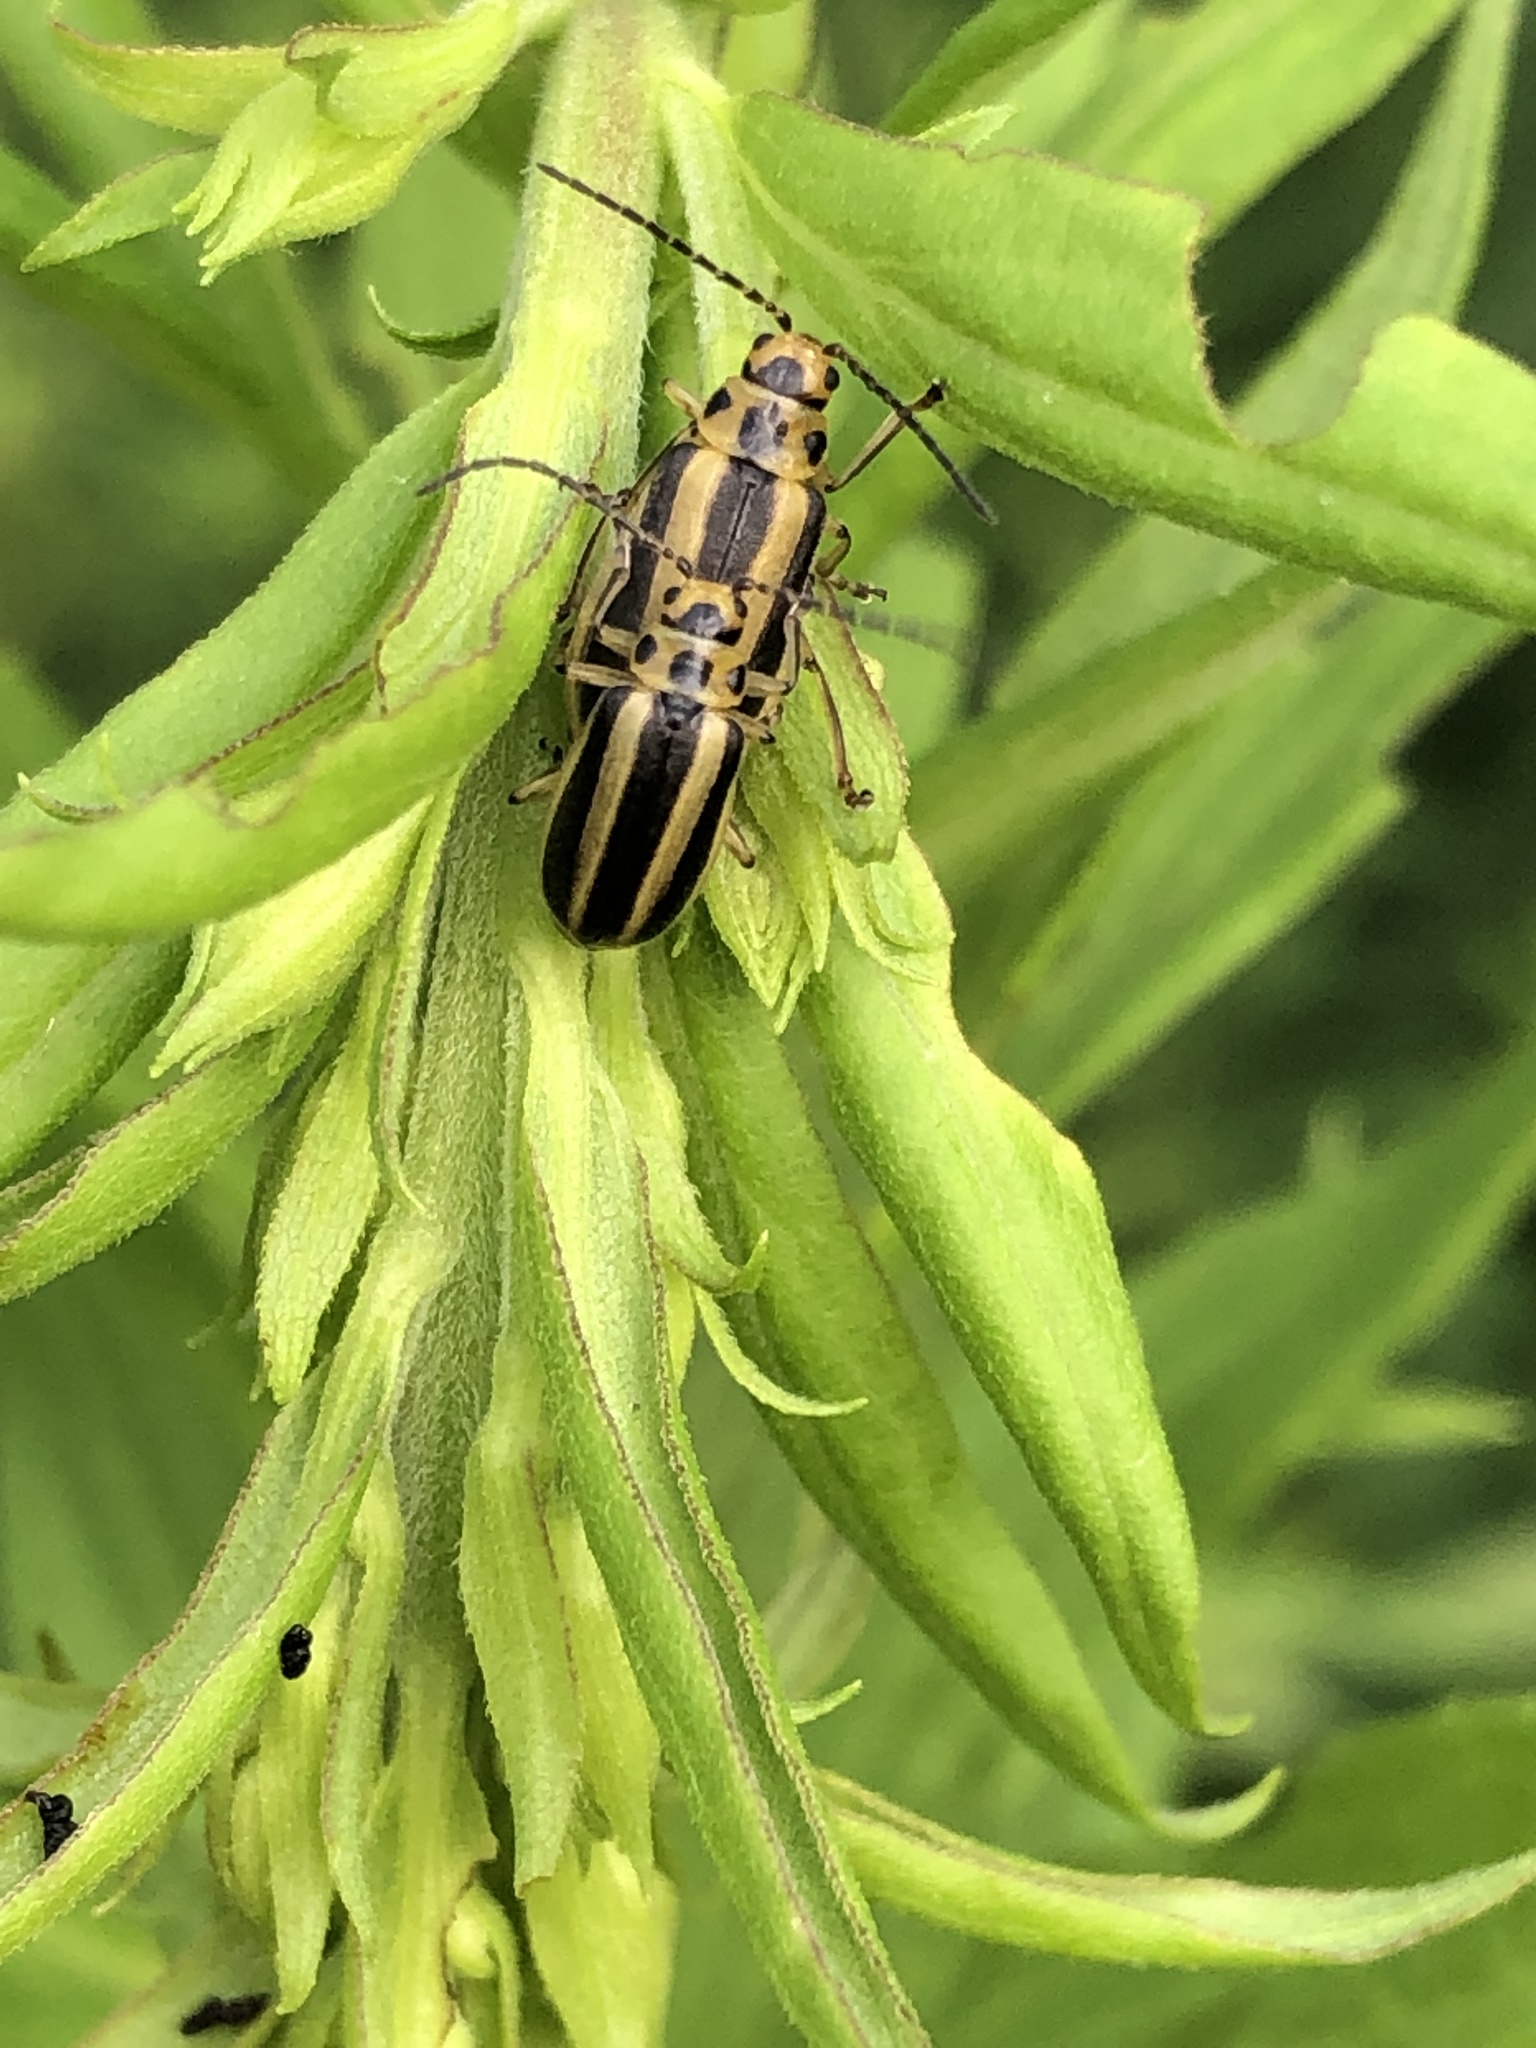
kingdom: Animalia
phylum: Arthropoda
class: Insecta
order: Coleoptera
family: Chrysomelidae
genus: Trirhabda
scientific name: Trirhabda canadensis
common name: Goldenrod leaf beetle
